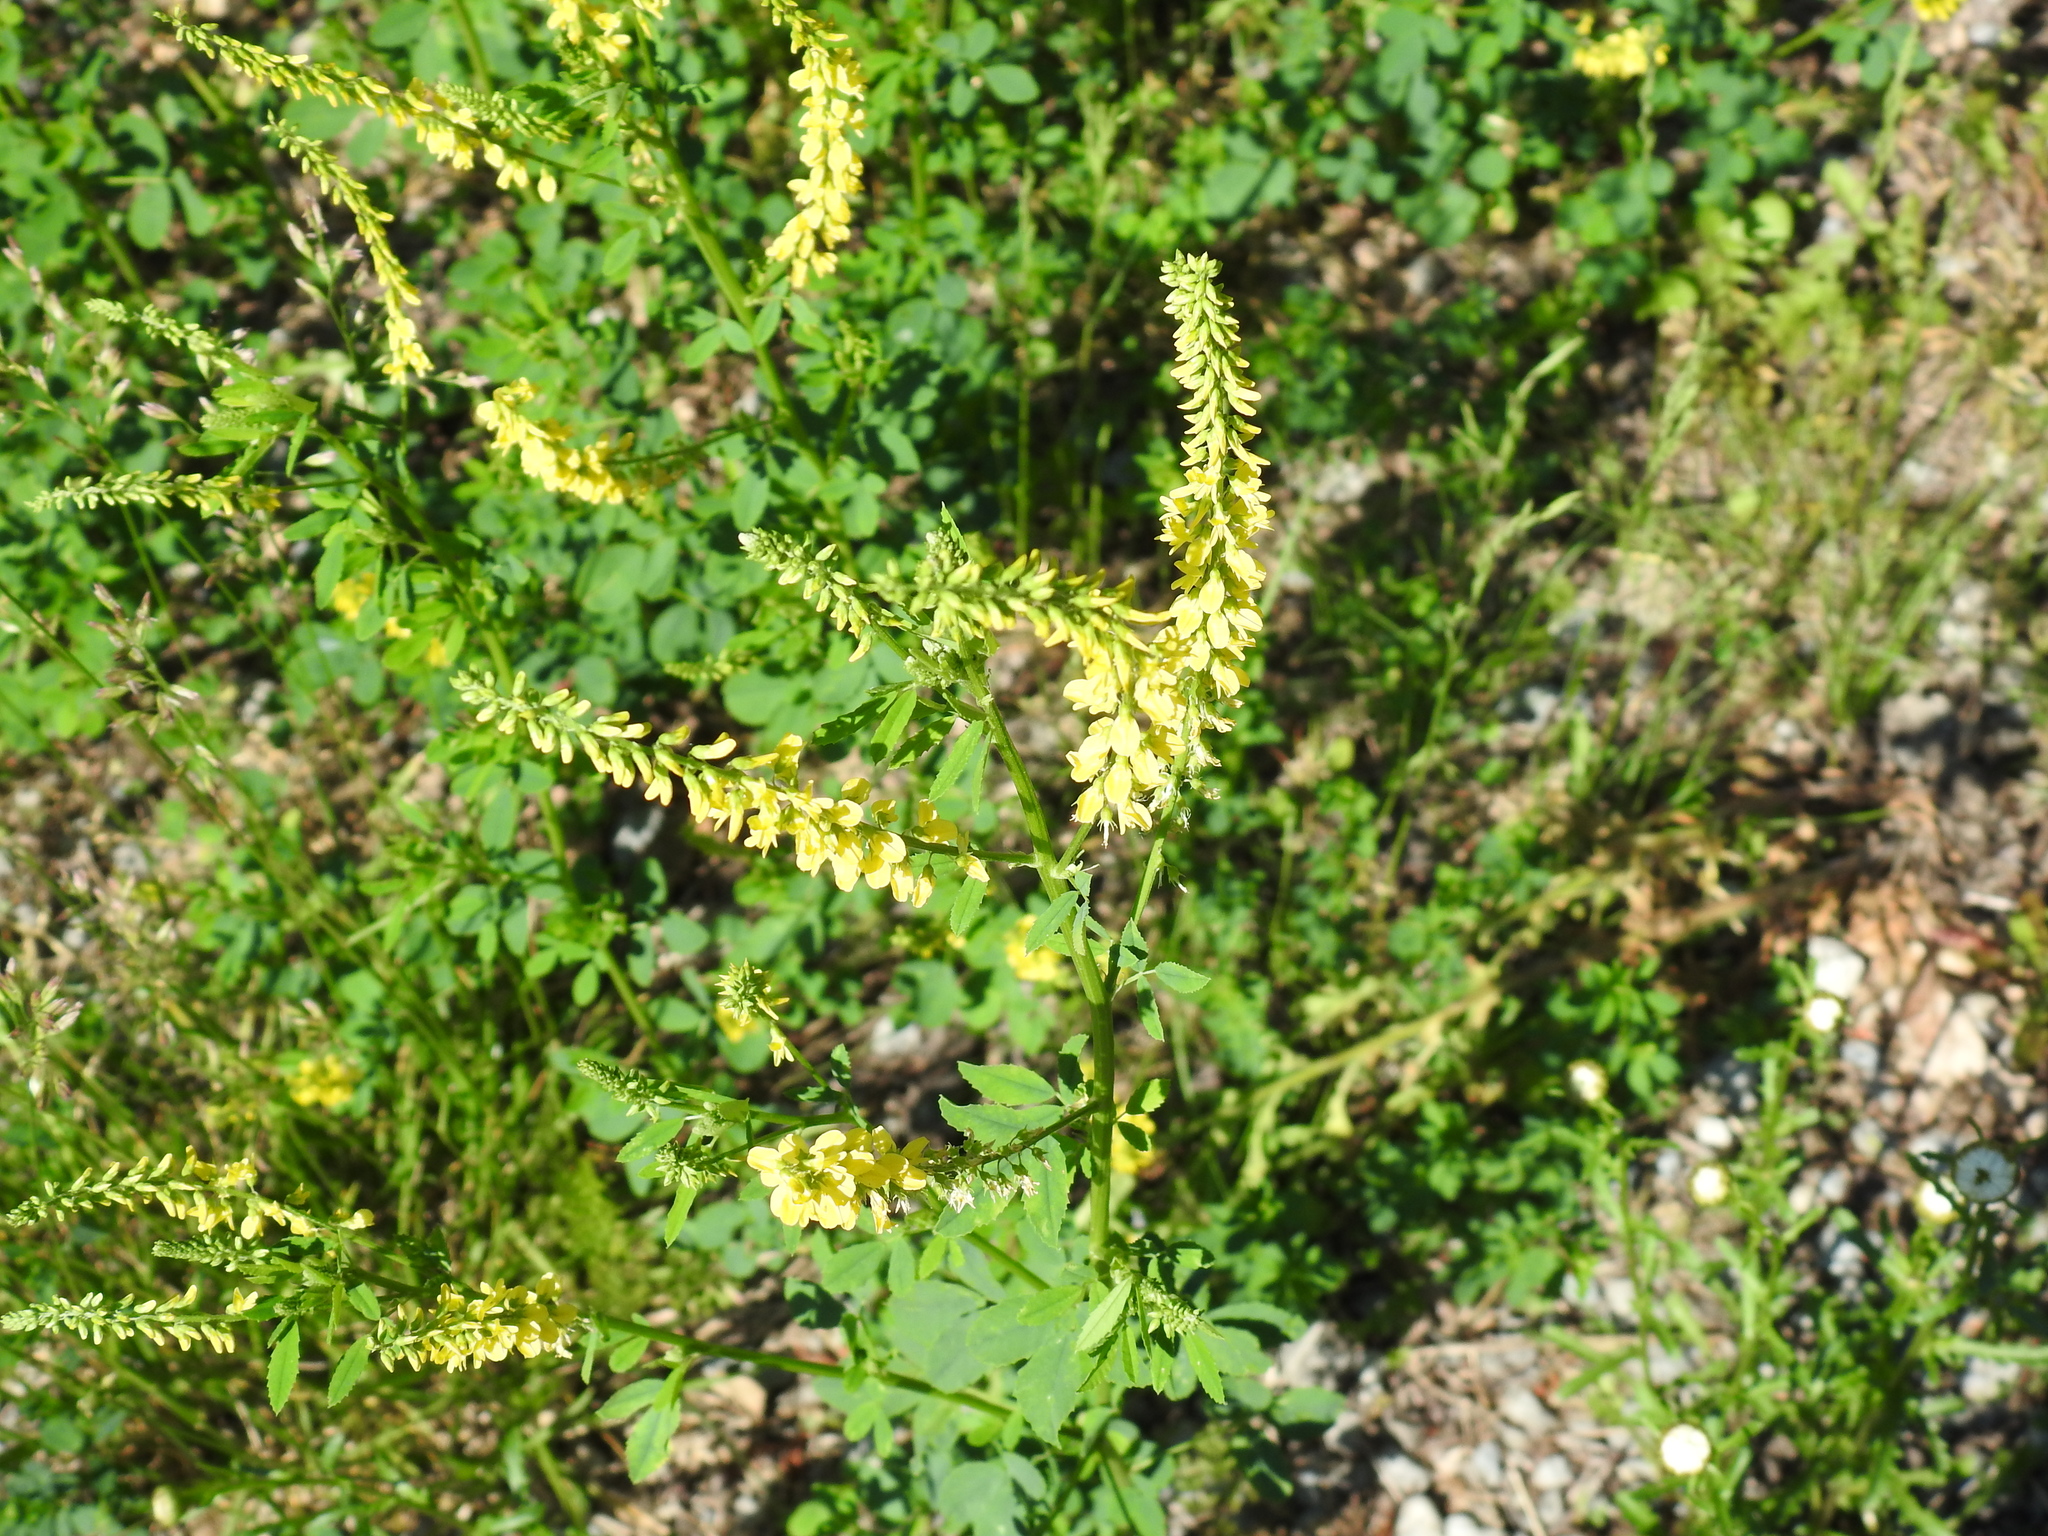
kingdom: Plantae
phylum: Tracheophyta
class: Magnoliopsida
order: Fabales
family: Fabaceae
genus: Melilotus
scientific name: Melilotus officinalis
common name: Sweetclover
